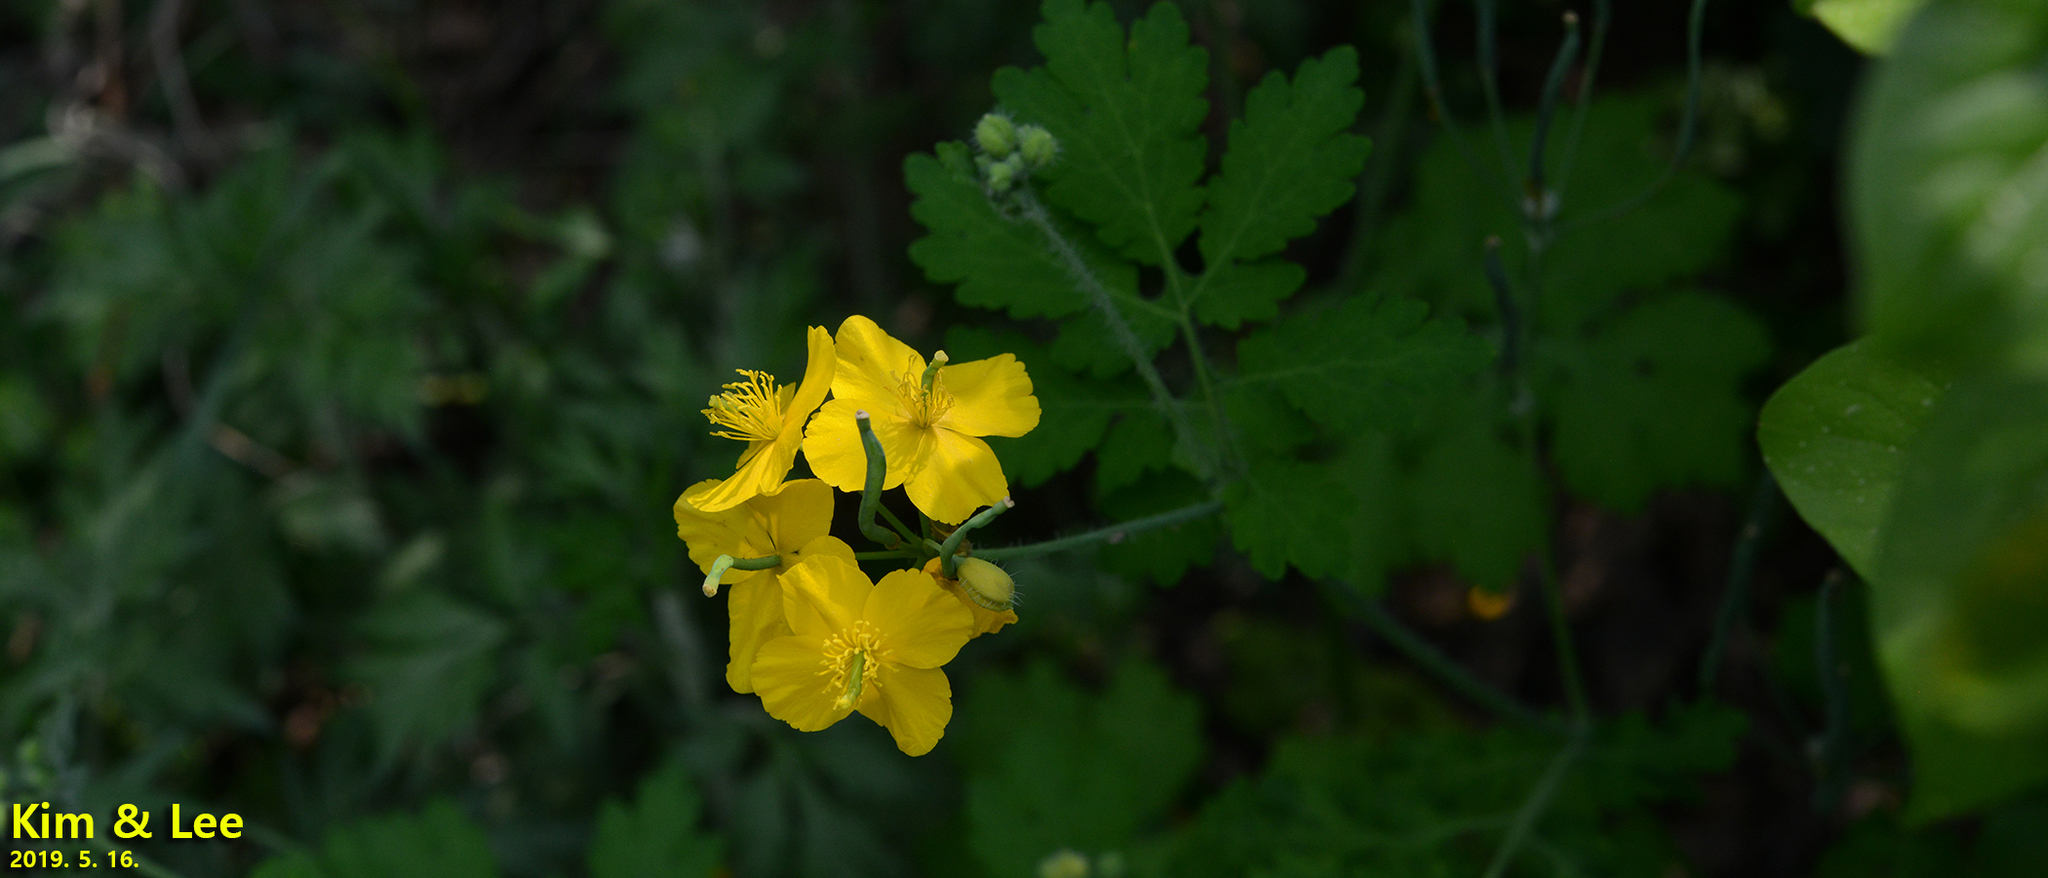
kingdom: Plantae
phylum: Tracheophyta
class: Magnoliopsida
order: Ranunculales
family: Papaveraceae
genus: Chelidonium
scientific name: Chelidonium majus
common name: Greater celandine
